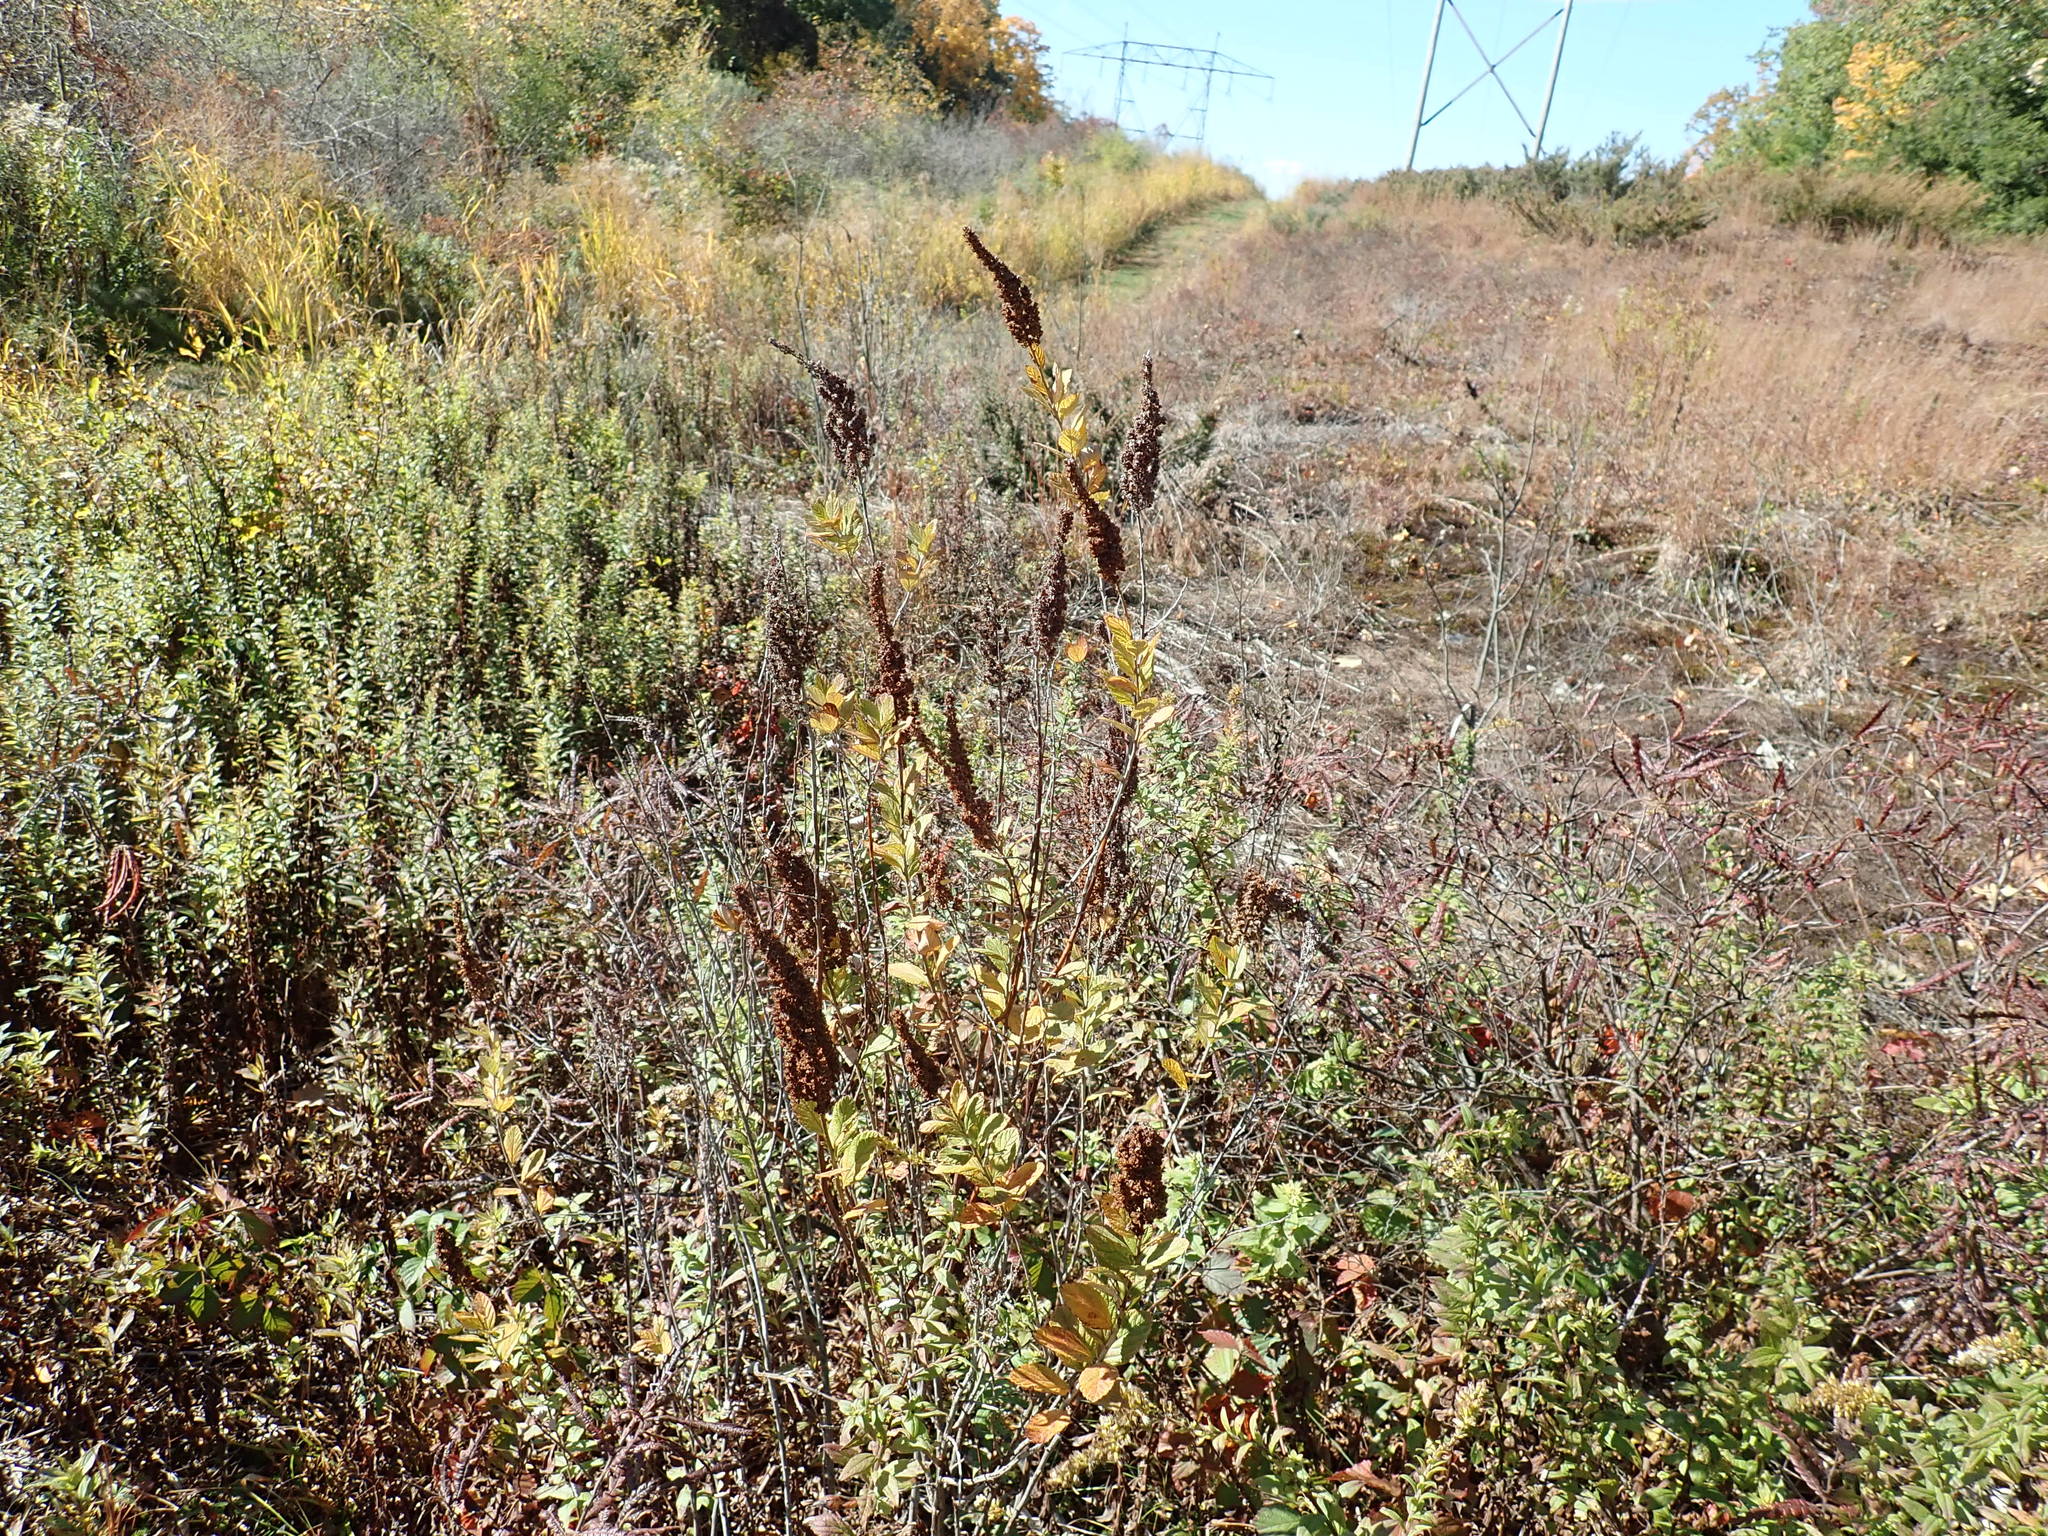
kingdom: Plantae
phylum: Tracheophyta
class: Magnoliopsida
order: Rosales
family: Rosaceae
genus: Spiraea
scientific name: Spiraea tomentosa
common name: Hardhack
